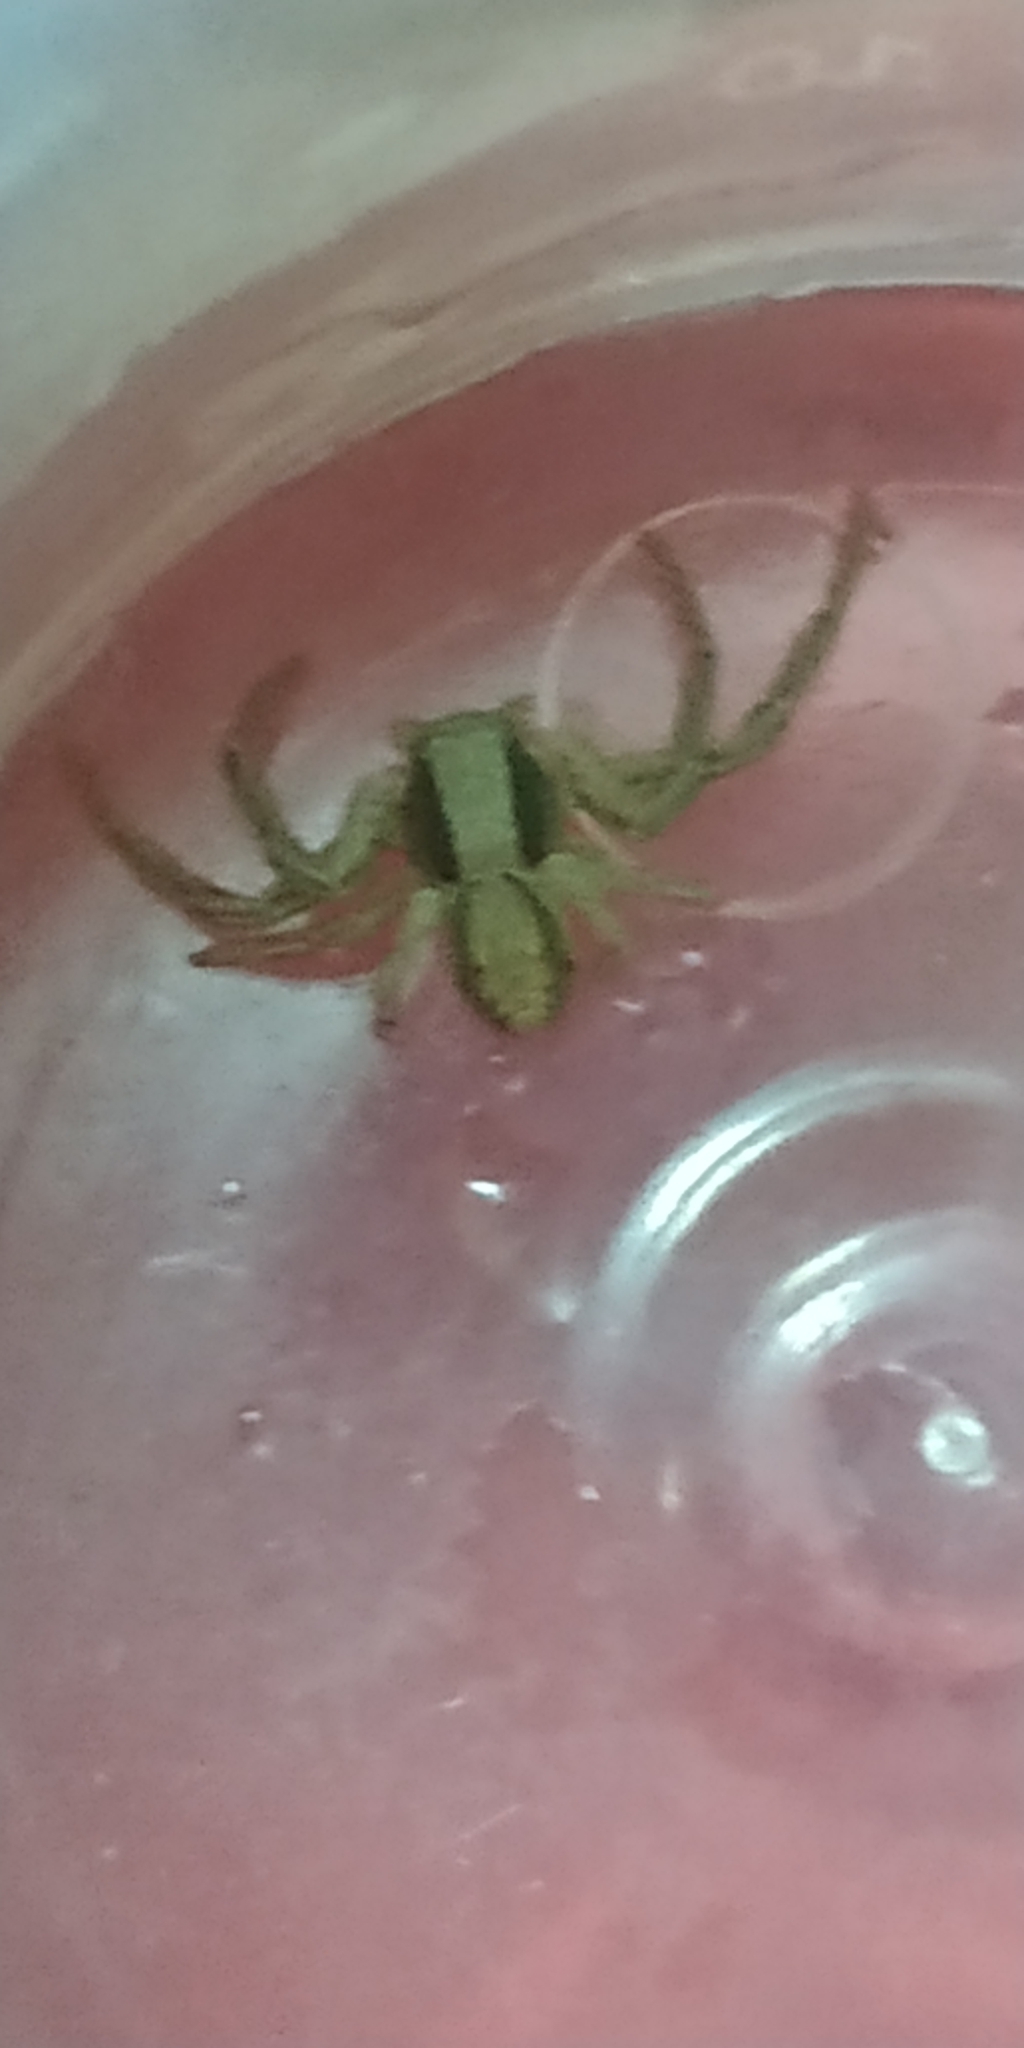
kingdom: Animalia
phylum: Arthropoda
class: Arachnida
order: Araneae
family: Thomisidae
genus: Spiracme
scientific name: Spiracme striatipes
